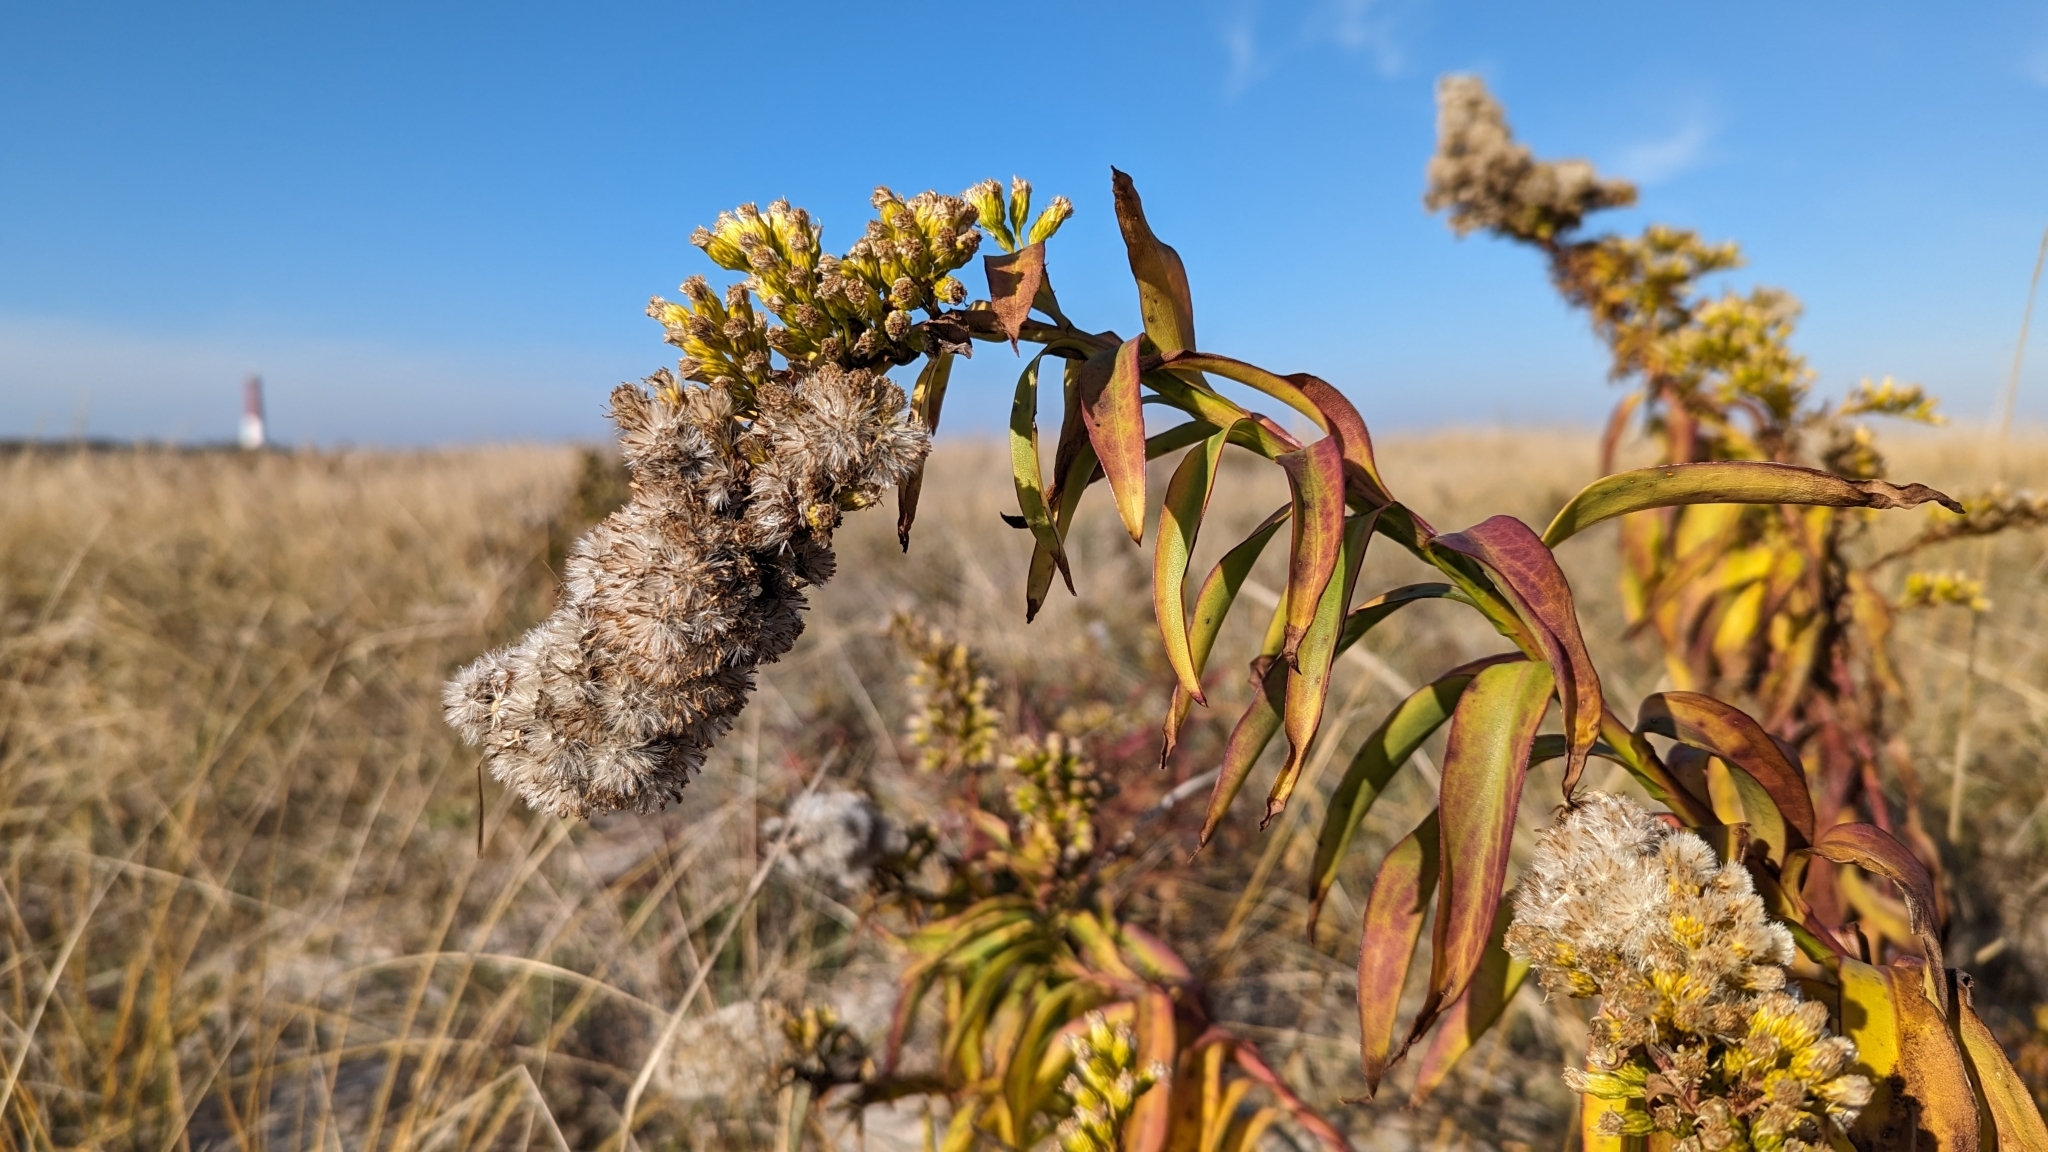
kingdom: Plantae
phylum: Tracheophyta
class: Magnoliopsida
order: Asterales
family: Asteraceae
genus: Solidago
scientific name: Solidago sempervirens
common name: Salt-marsh goldenrod
